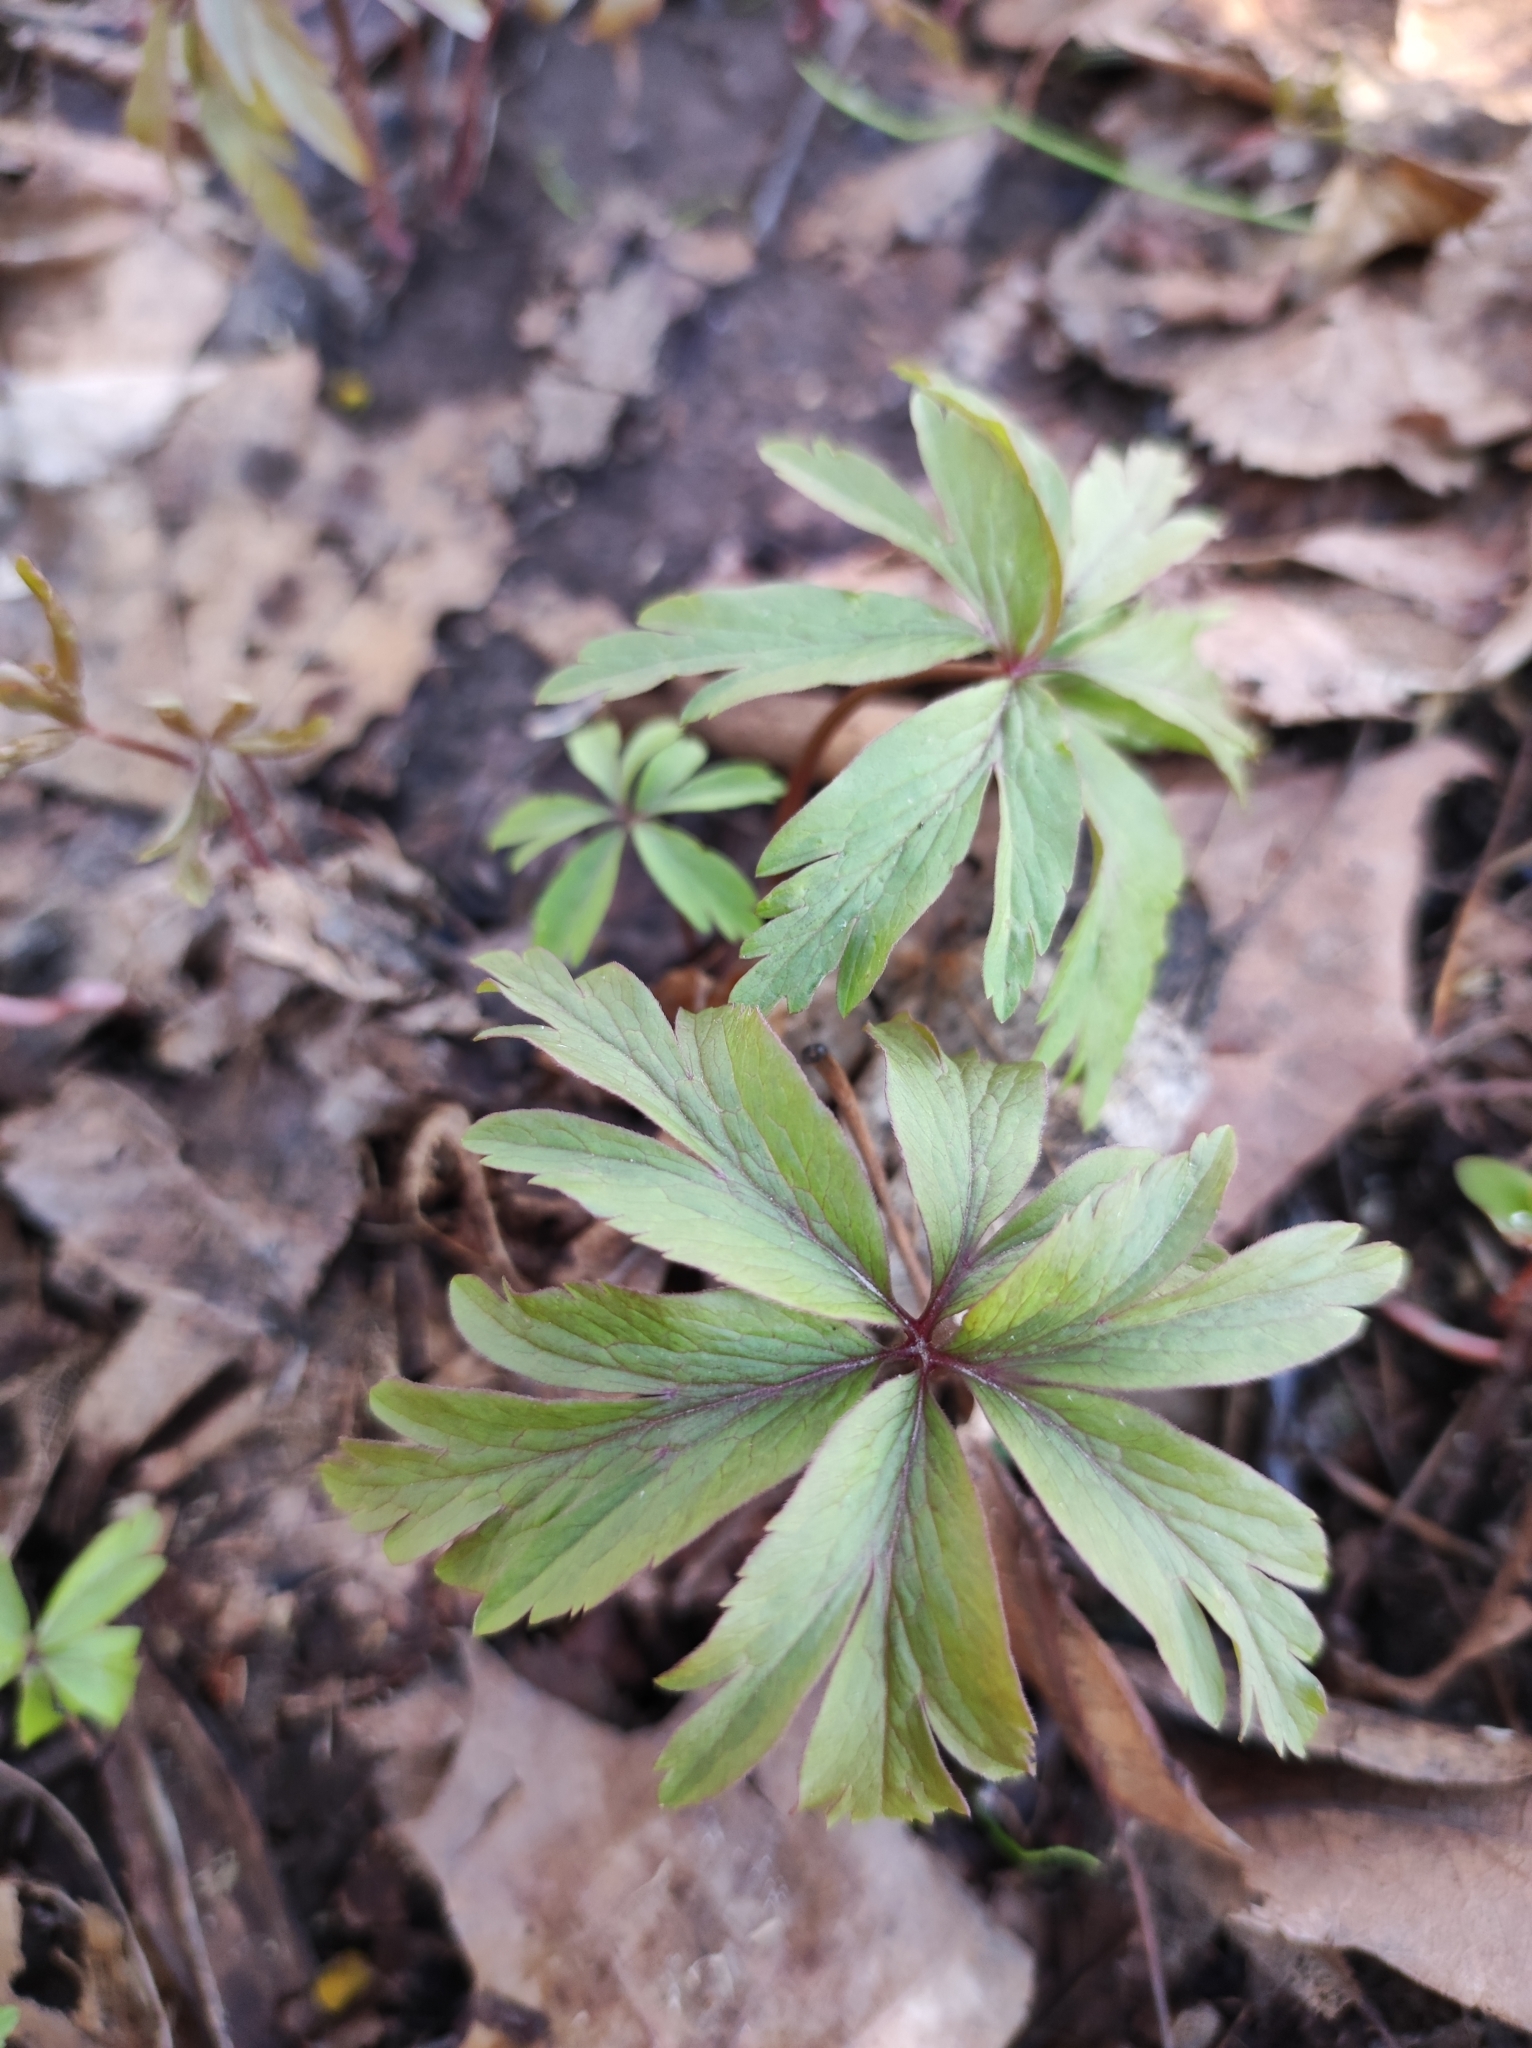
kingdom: Plantae
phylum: Tracheophyta
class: Magnoliopsida
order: Ranunculales
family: Ranunculaceae
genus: Anemone
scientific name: Anemone ranunculoides
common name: Yellow anemone
